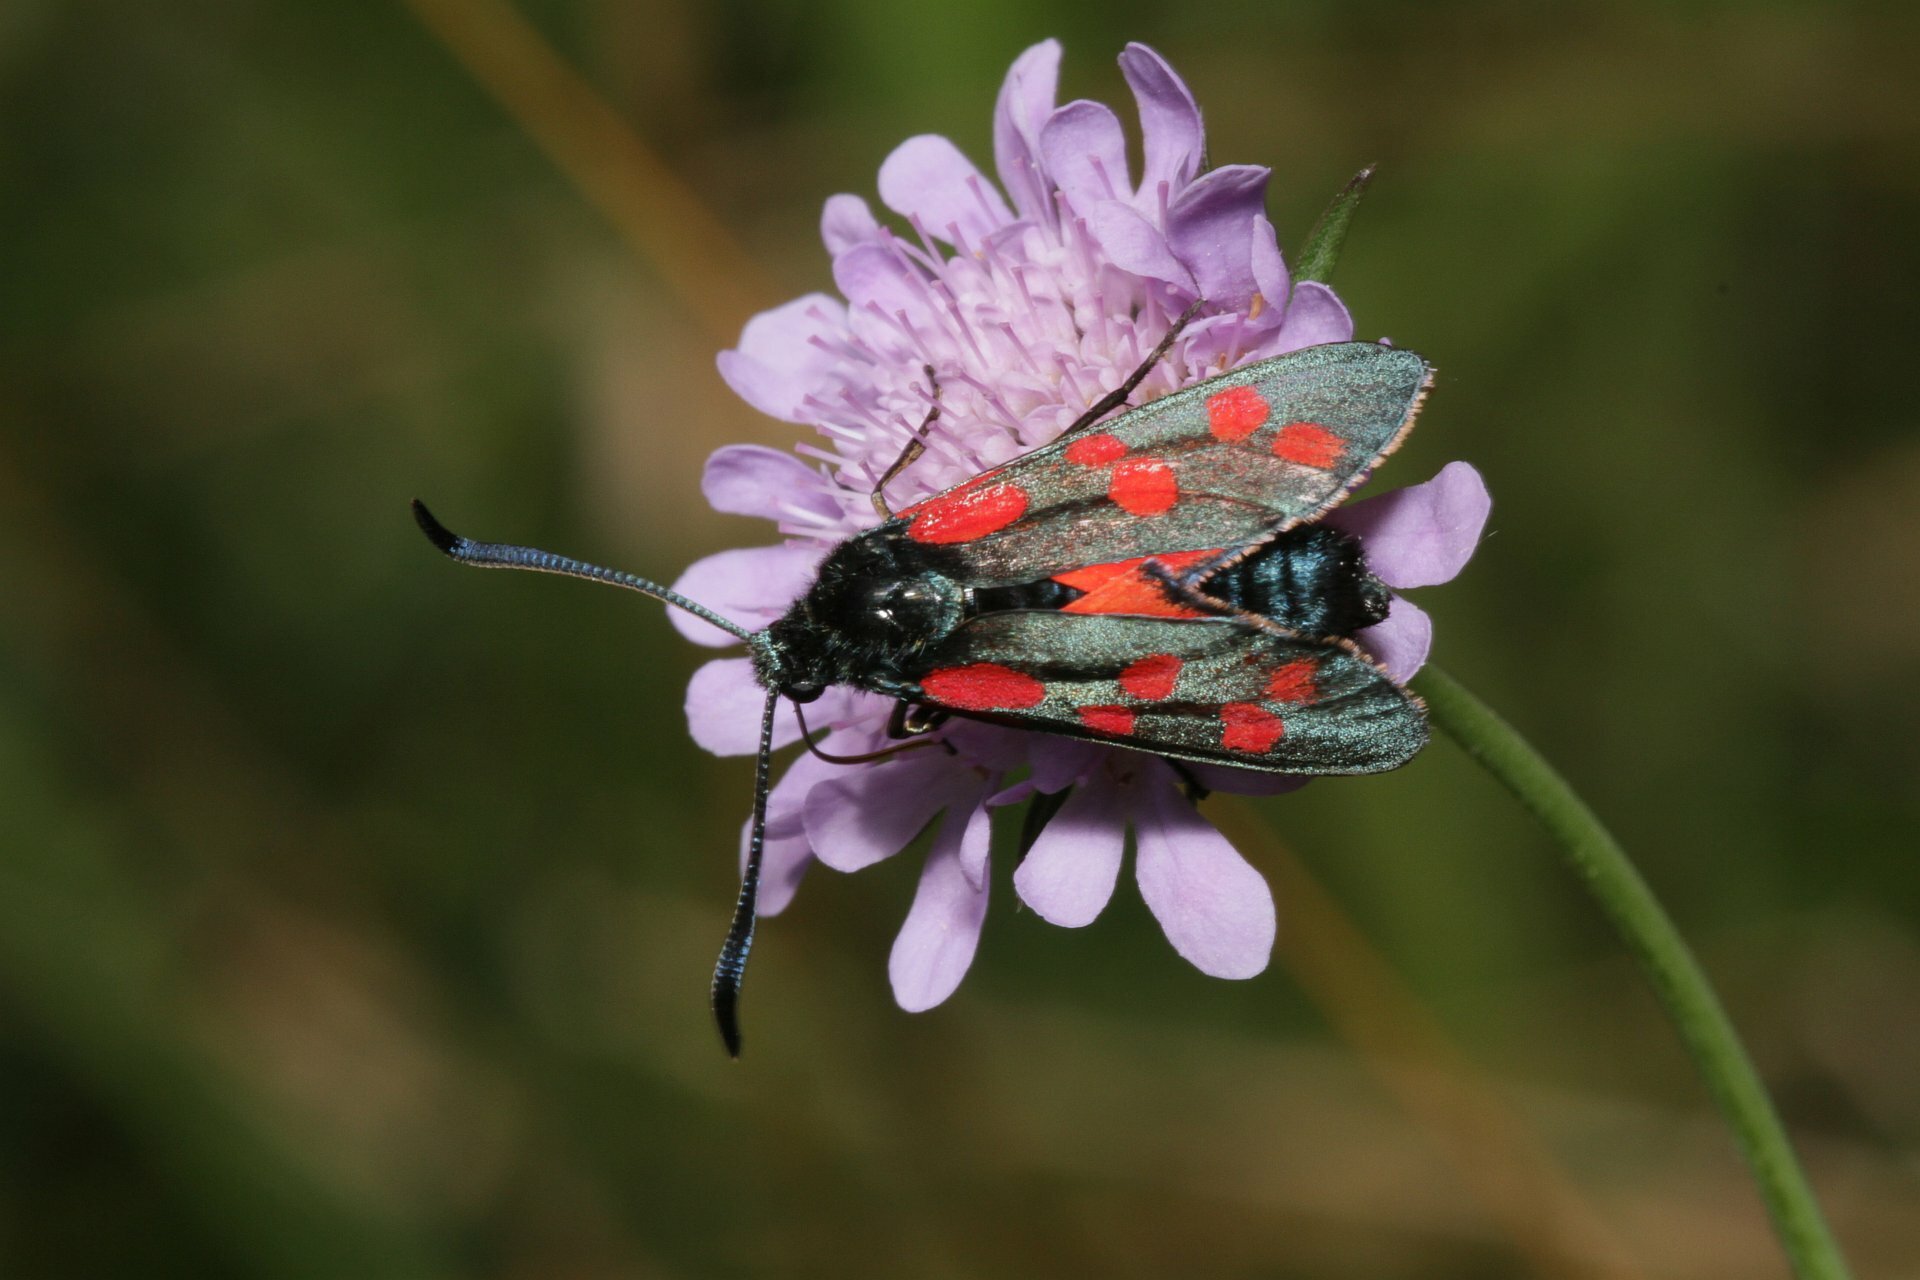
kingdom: Animalia
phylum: Arthropoda
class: Insecta
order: Lepidoptera
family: Zygaenidae
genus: Zygaena
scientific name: Zygaena filipendulae
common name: Six-spot burnet
